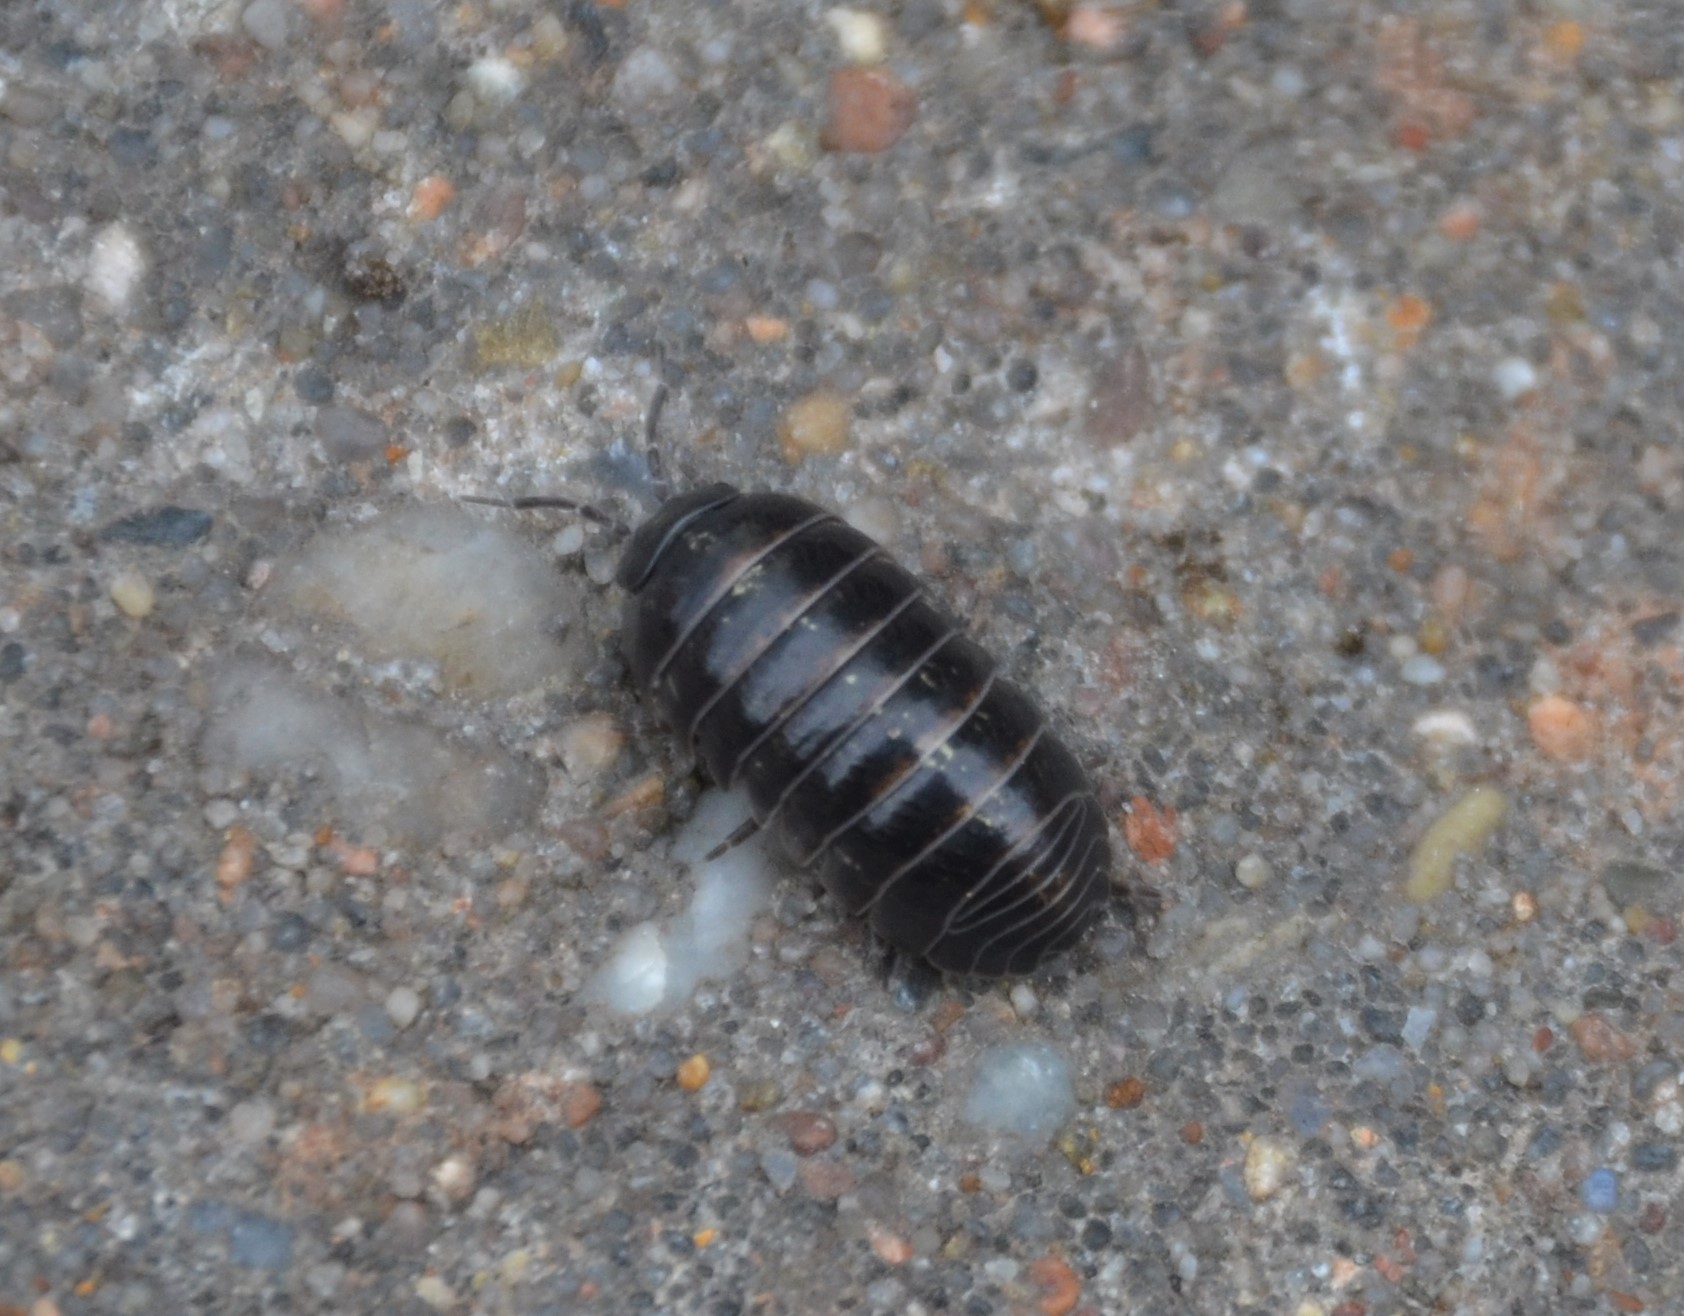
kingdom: Animalia
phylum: Arthropoda
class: Malacostraca
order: Isopoda
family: Armadillidiidae
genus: Armadillidium
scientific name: Armadillidium vulgare
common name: Common pill woodlouse
